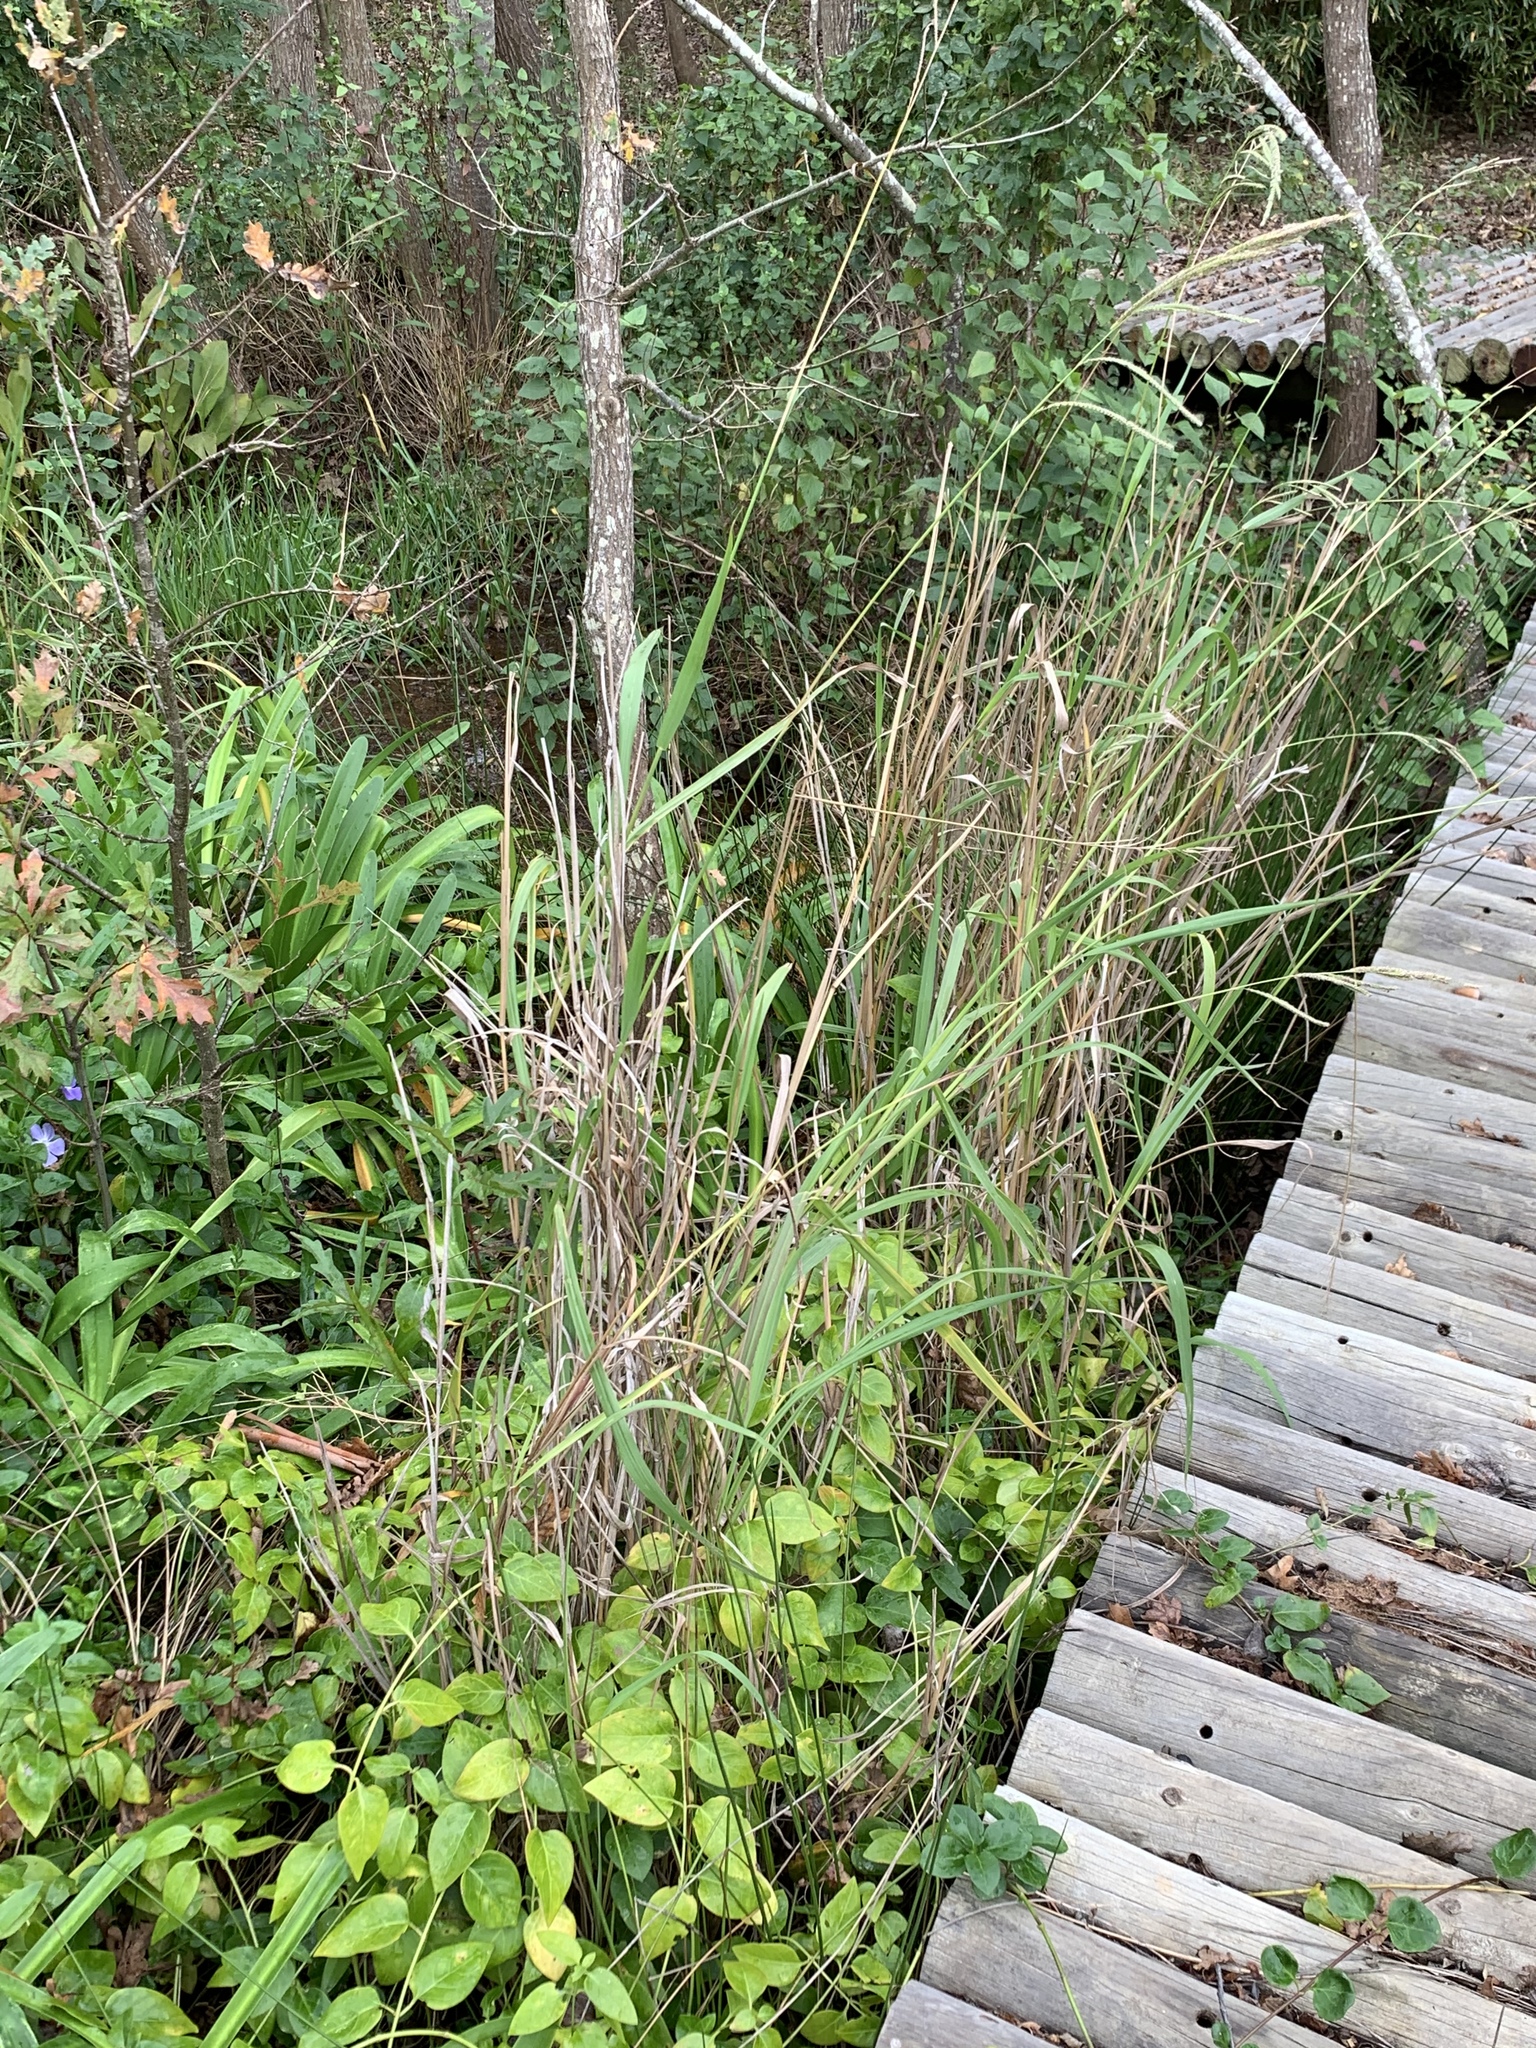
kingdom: Plantae
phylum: Tracheophyta
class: Liliopsida
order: Poales
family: Poaceae
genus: Paspalum
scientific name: Paspalum urvillei
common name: Vasey's grass
